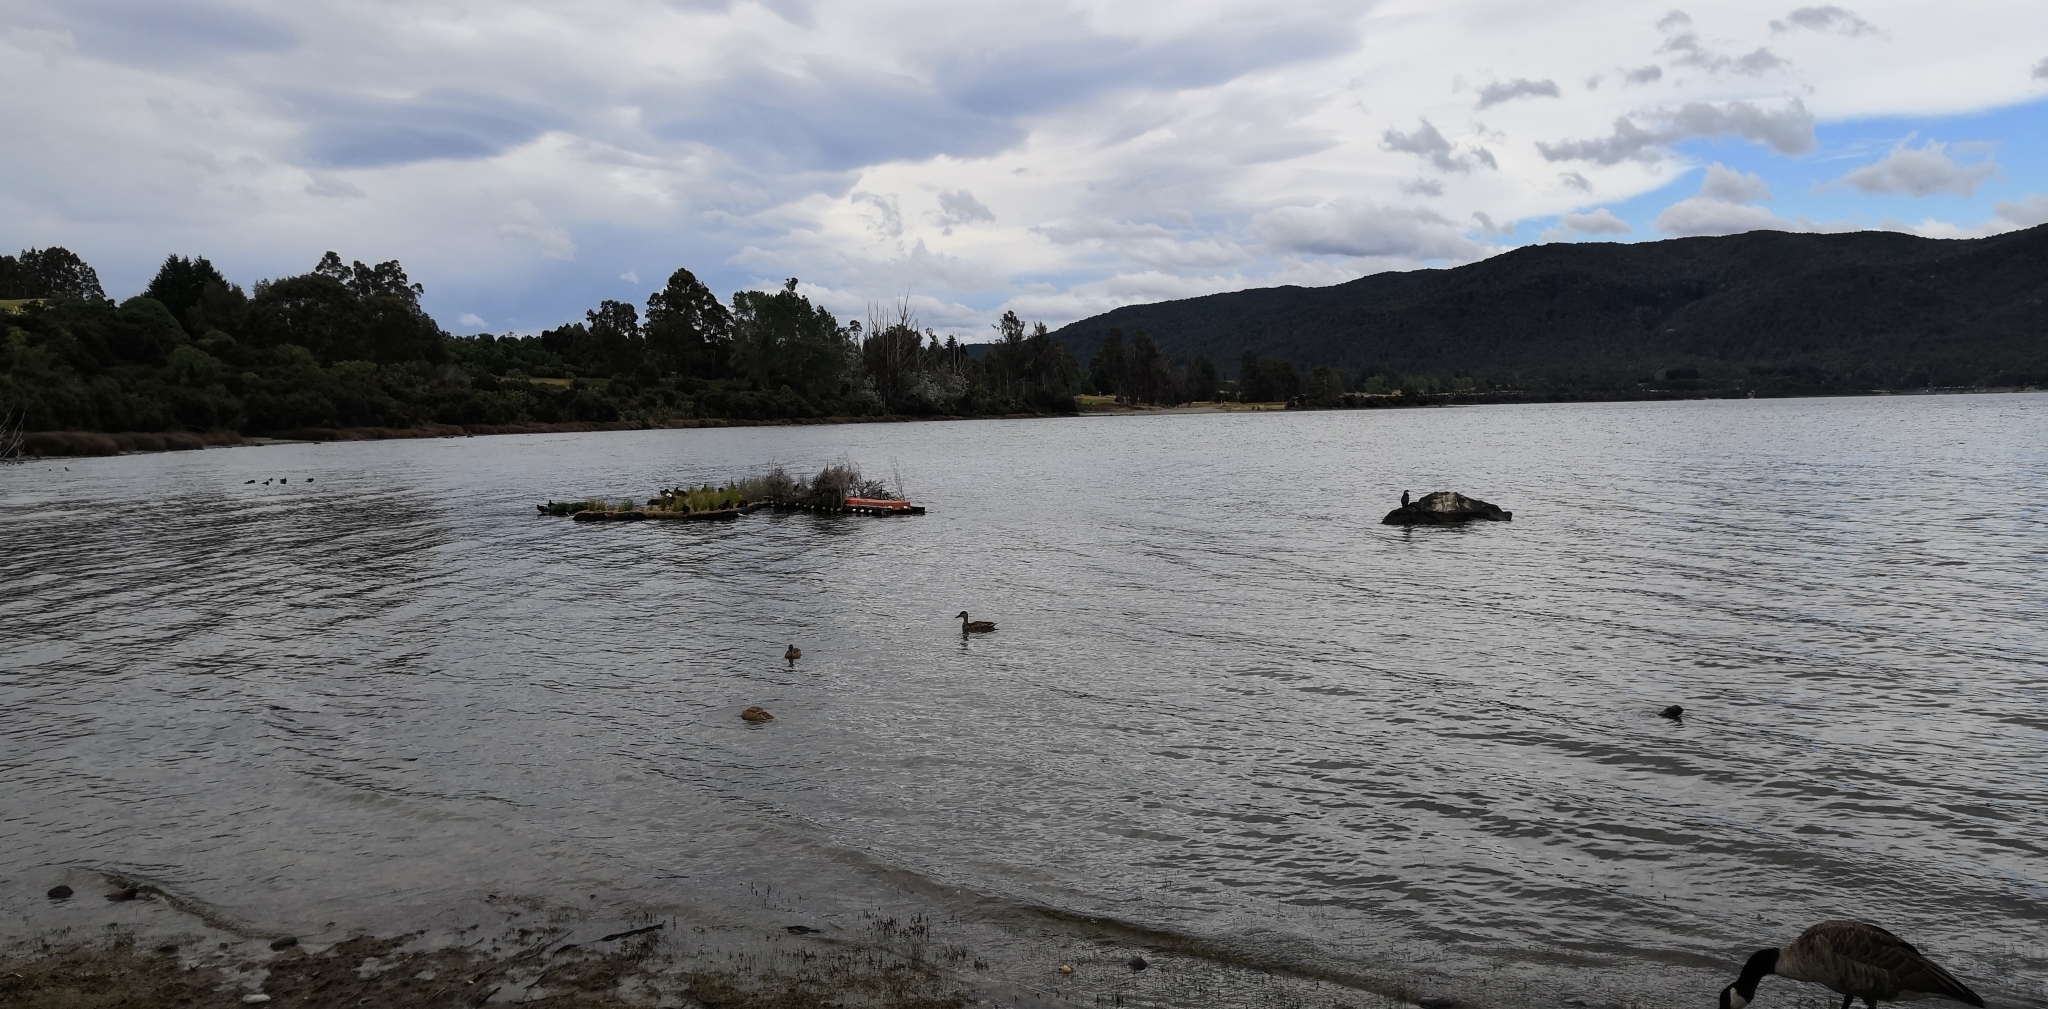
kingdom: Animalia
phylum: Chordata
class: Aves
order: Suliformes
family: Phalacrocoracidae
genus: Microcarbo
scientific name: Microcarbo melanoleucos
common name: Little pied cormorant
